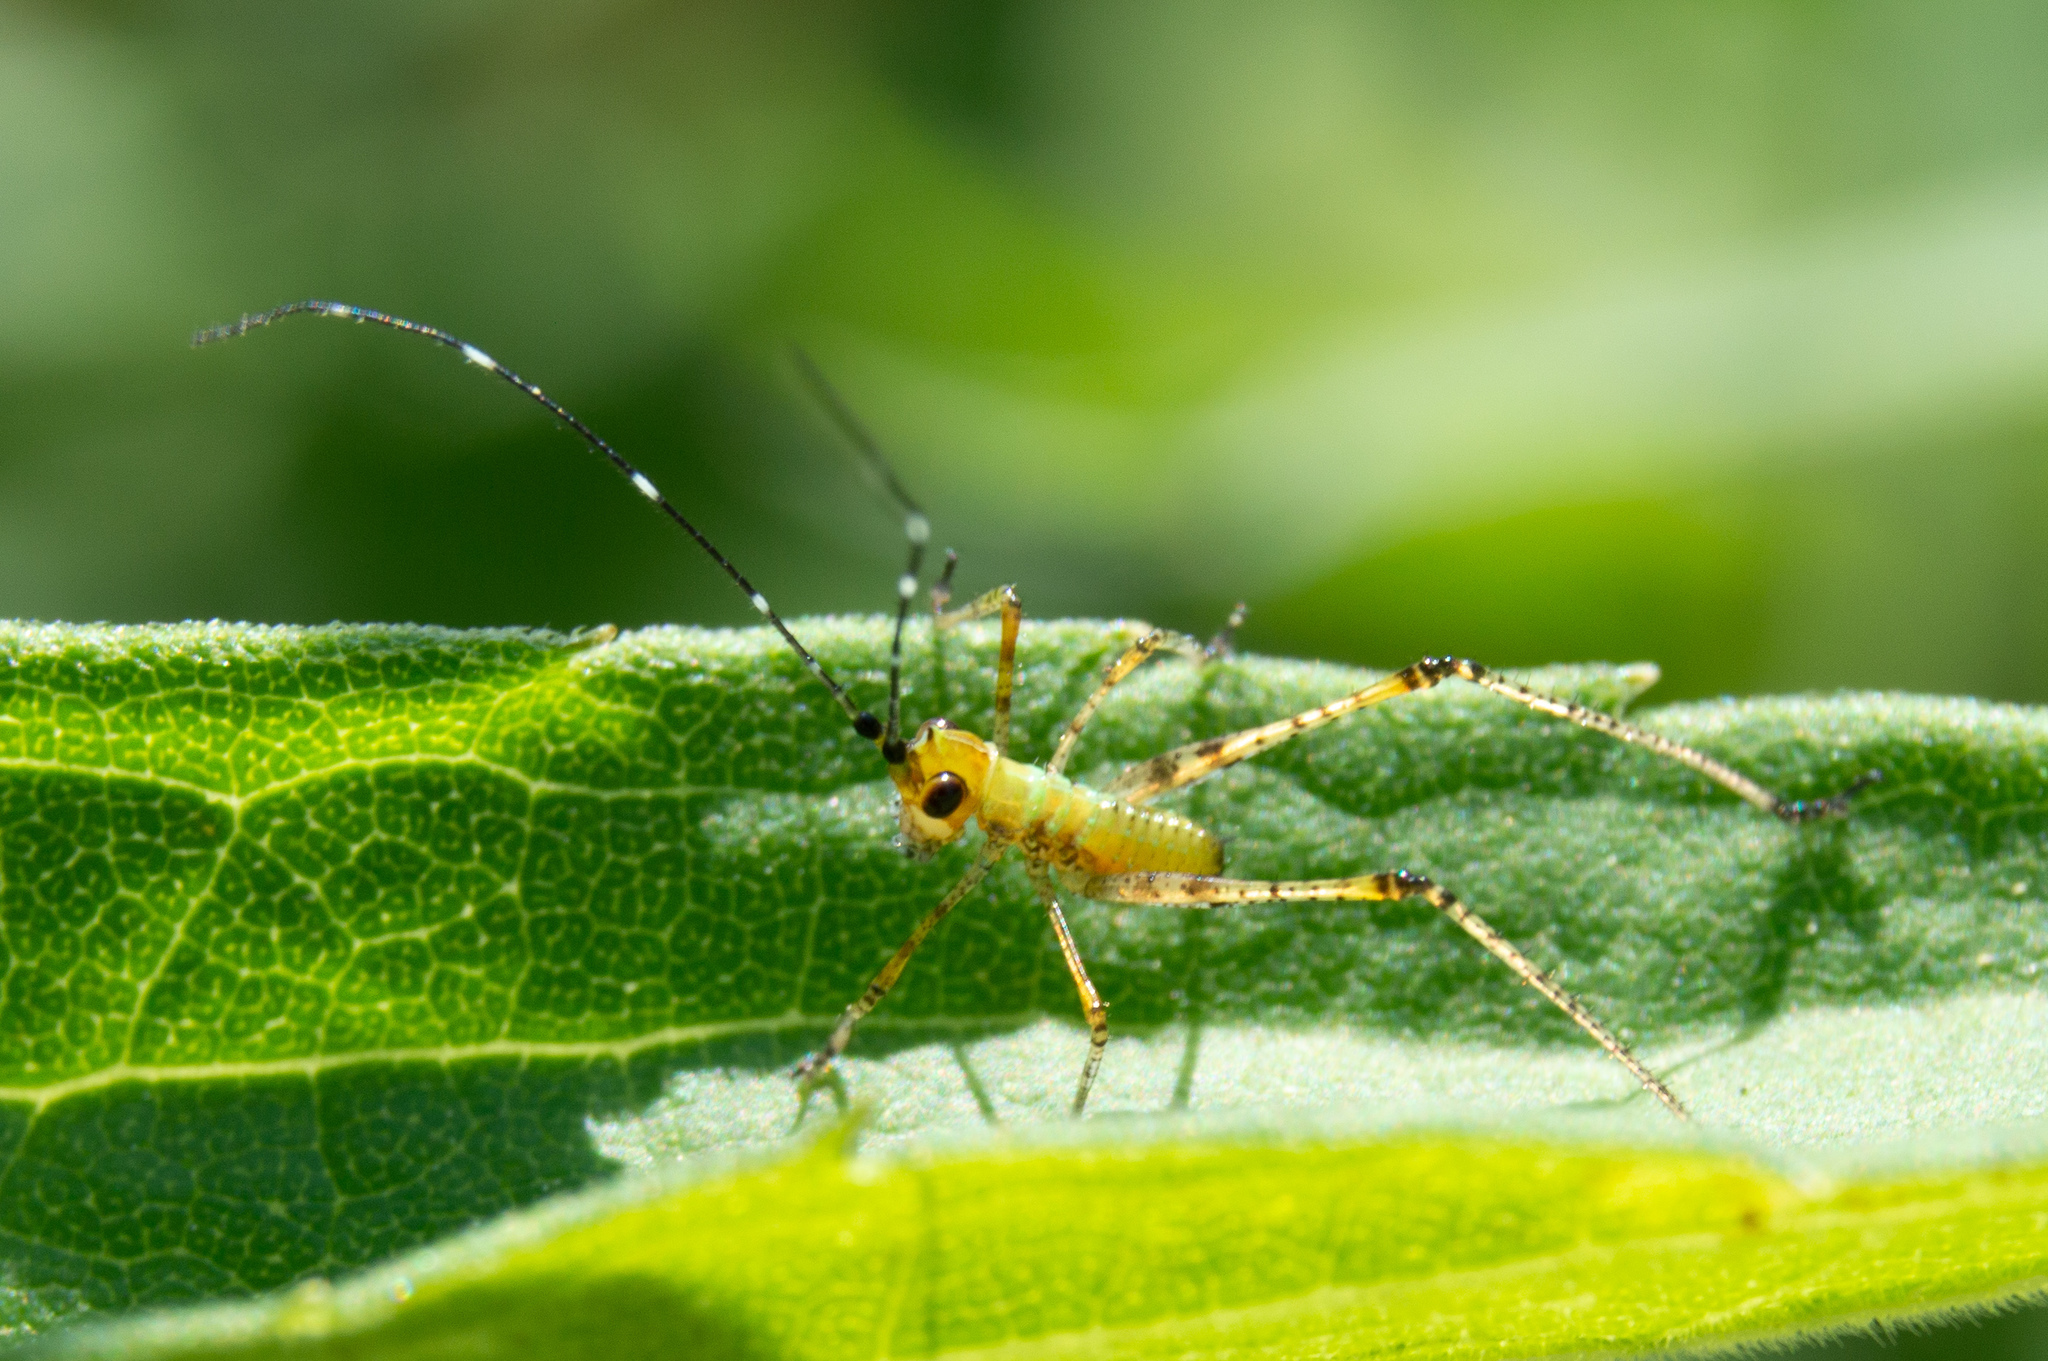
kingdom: Animalia
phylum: Arthropoda
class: Insecta
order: Orthoptera
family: Tettigoniidae
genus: Scudderia
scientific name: Scudderia
